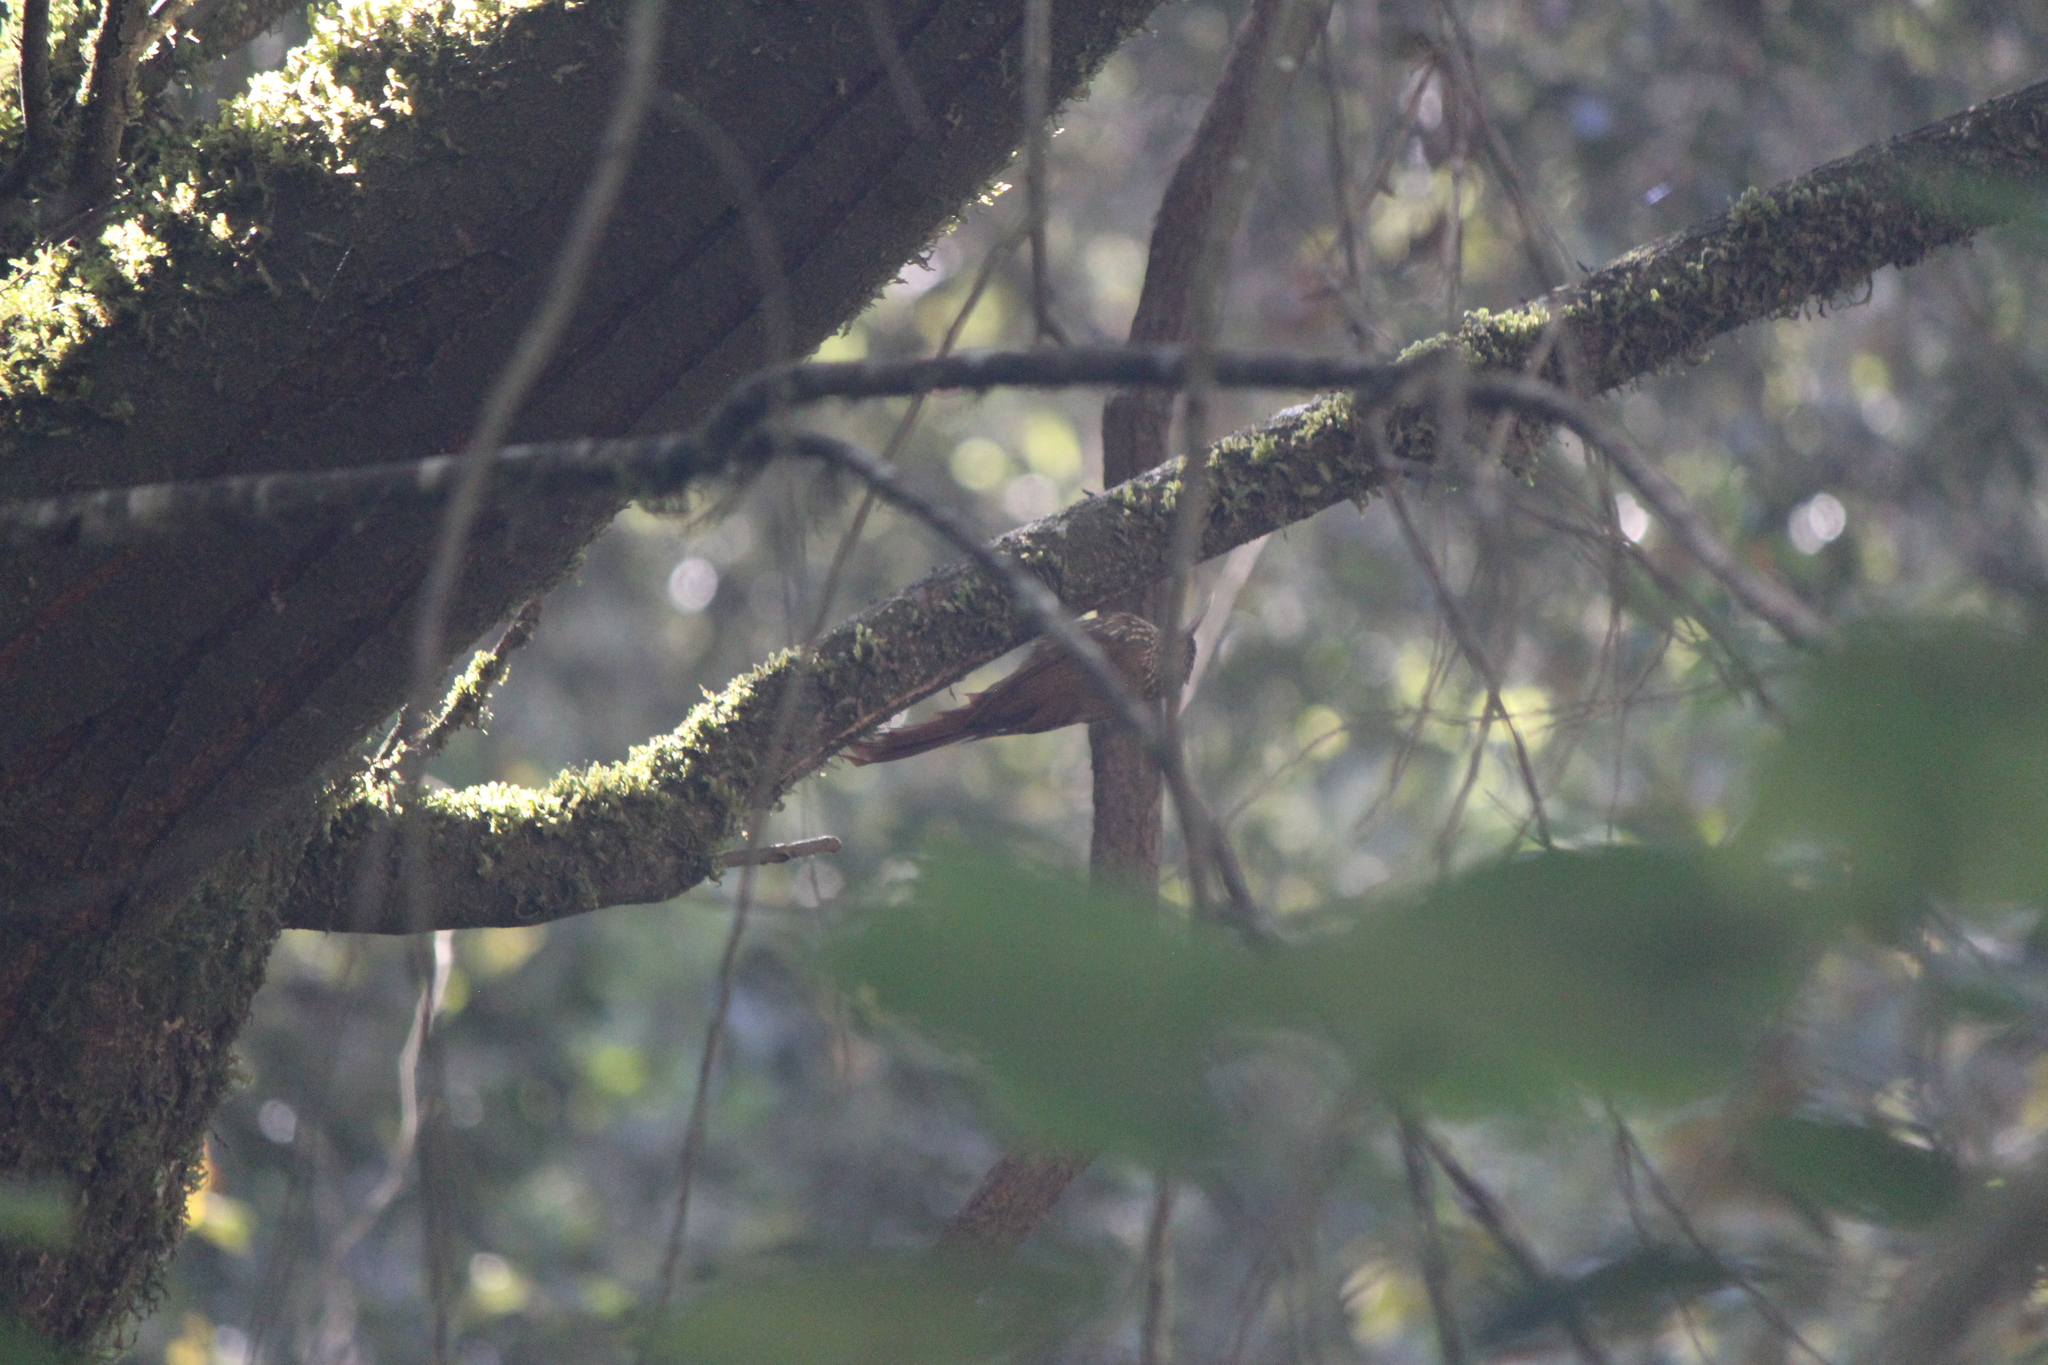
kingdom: Animalia
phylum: Chordata
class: Aves
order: Passeriformes
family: Furnariidae
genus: Lepidocolaptes
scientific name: Lepidocolaptes affinis
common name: Spot-crowned woodcreeper
